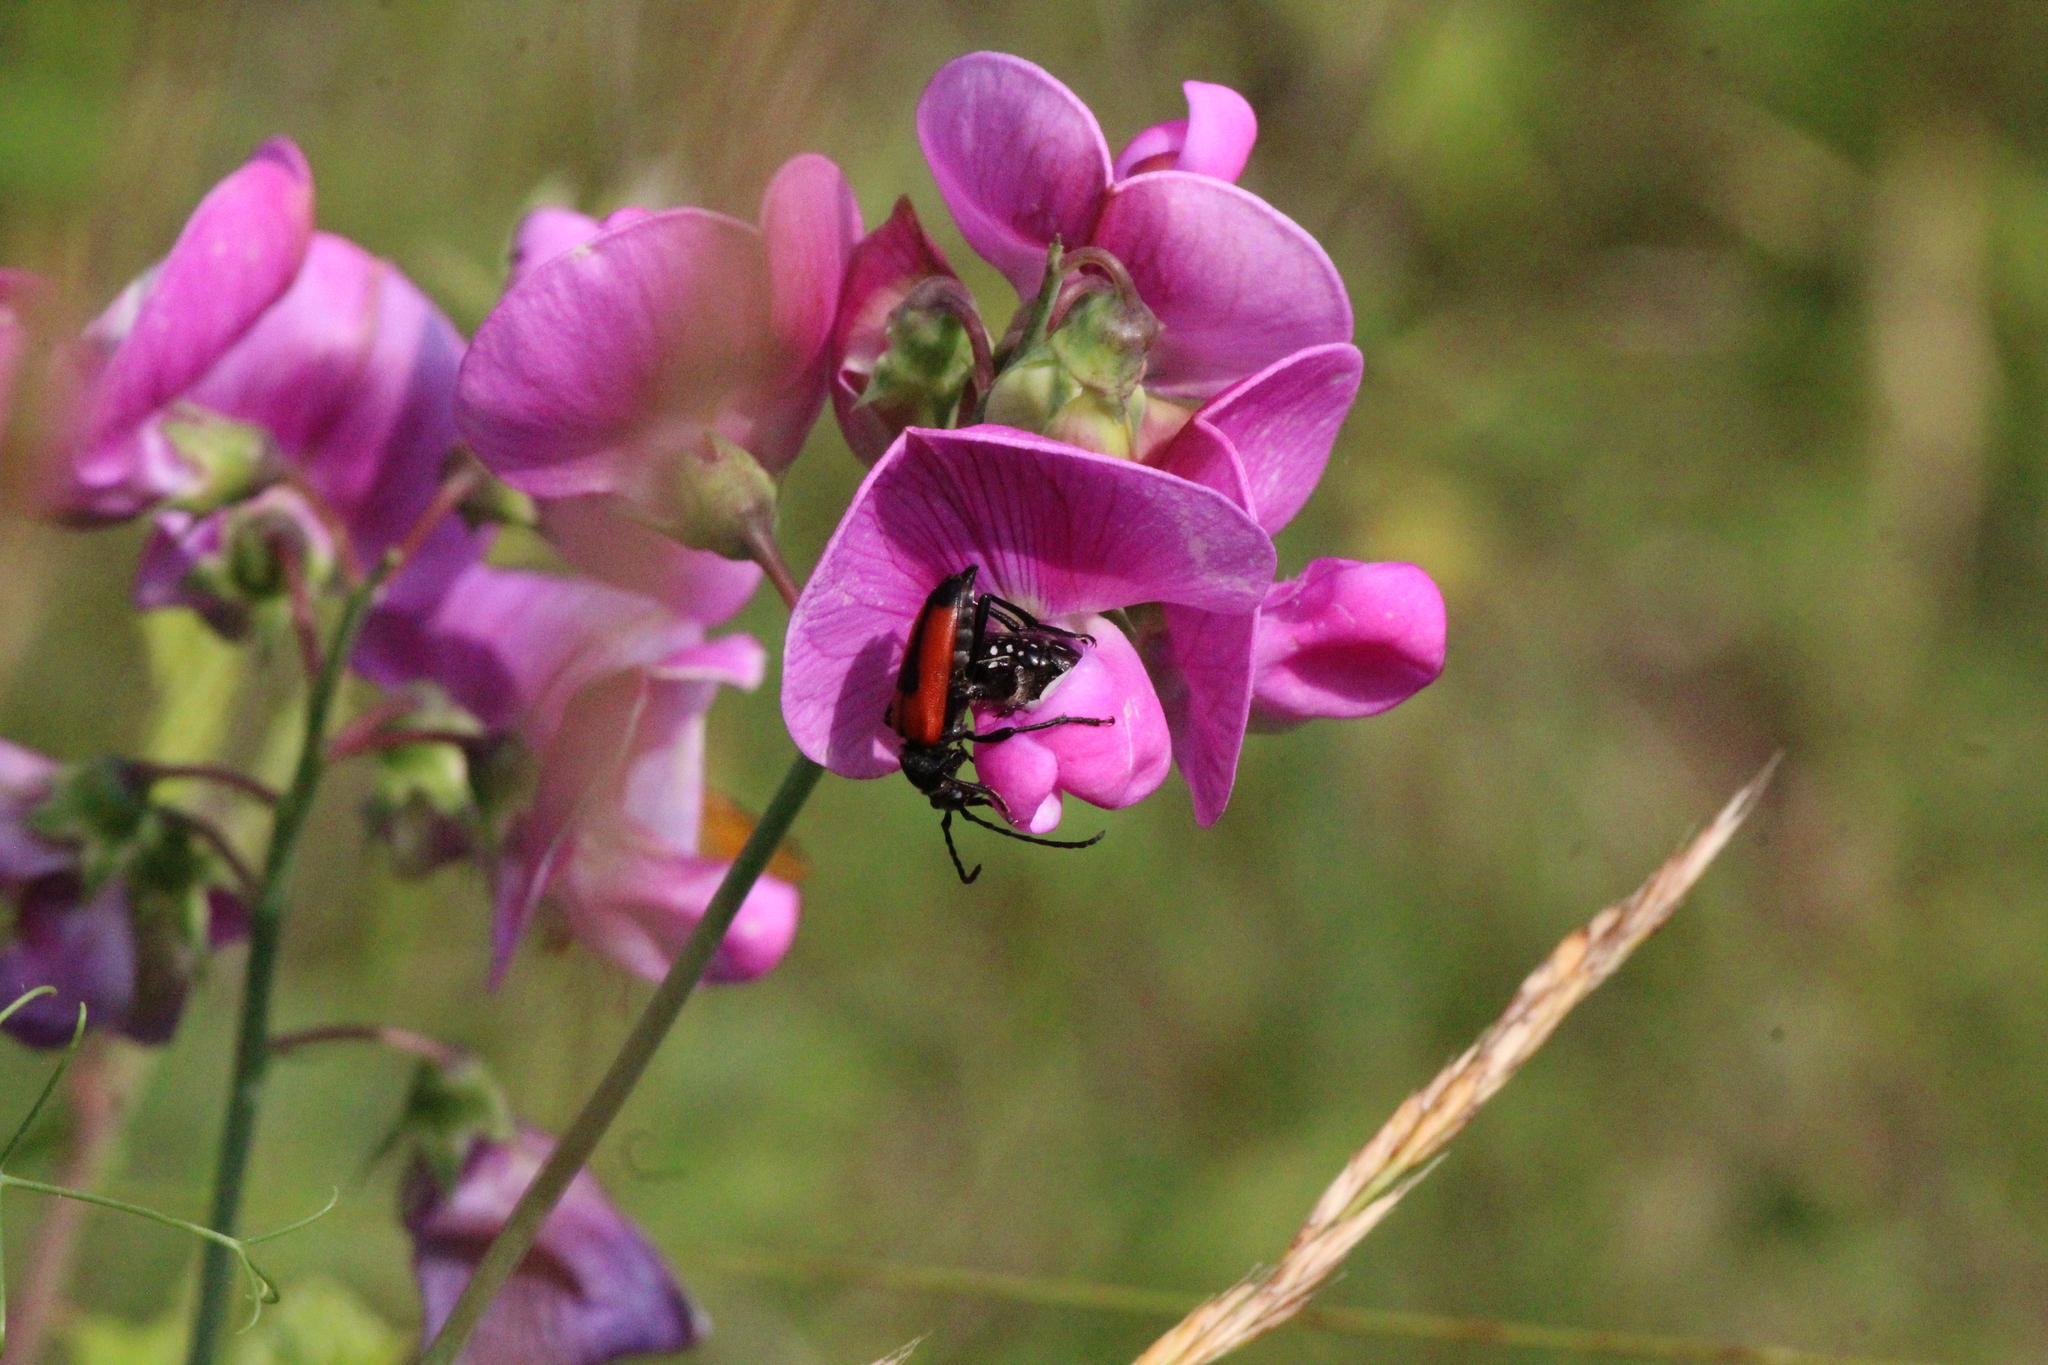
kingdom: Animalia
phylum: Arthropoda
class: Insecta
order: Coleoptera
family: Cerambycidae
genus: Stictoleptura
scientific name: Stictoleptura cordigera
